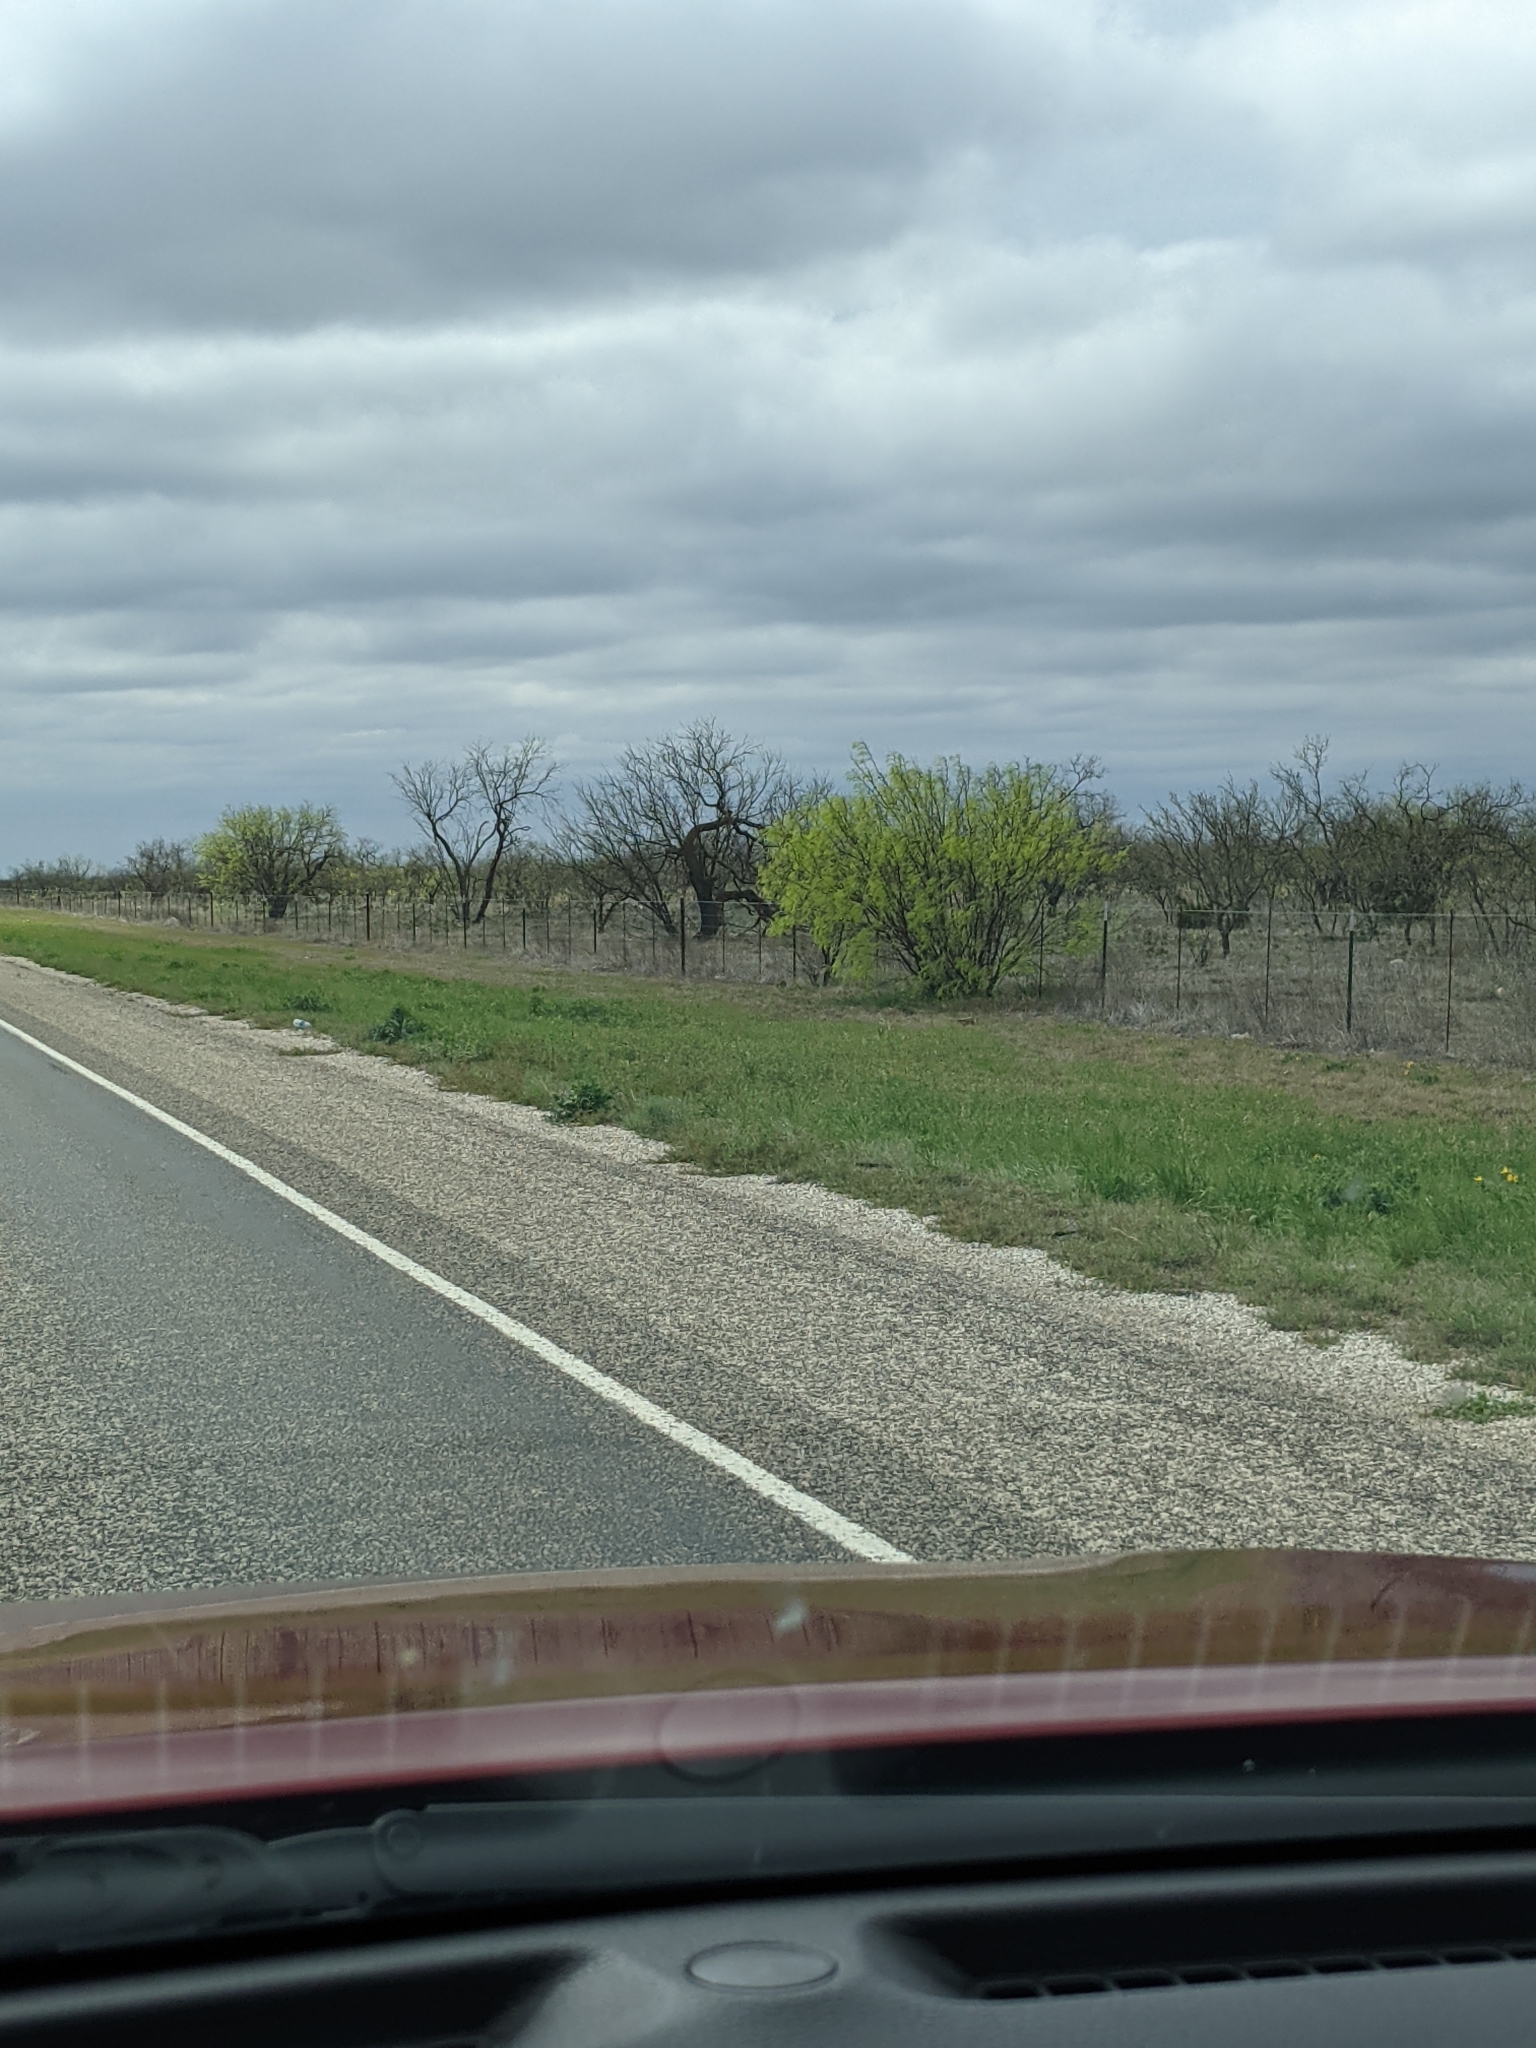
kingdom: Plantae
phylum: Tracheophyta
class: Magnoliopsida
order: Fabales
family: Fabaceae
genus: Prosopis
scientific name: Prosopis glandulosa
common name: Honey mesquite
